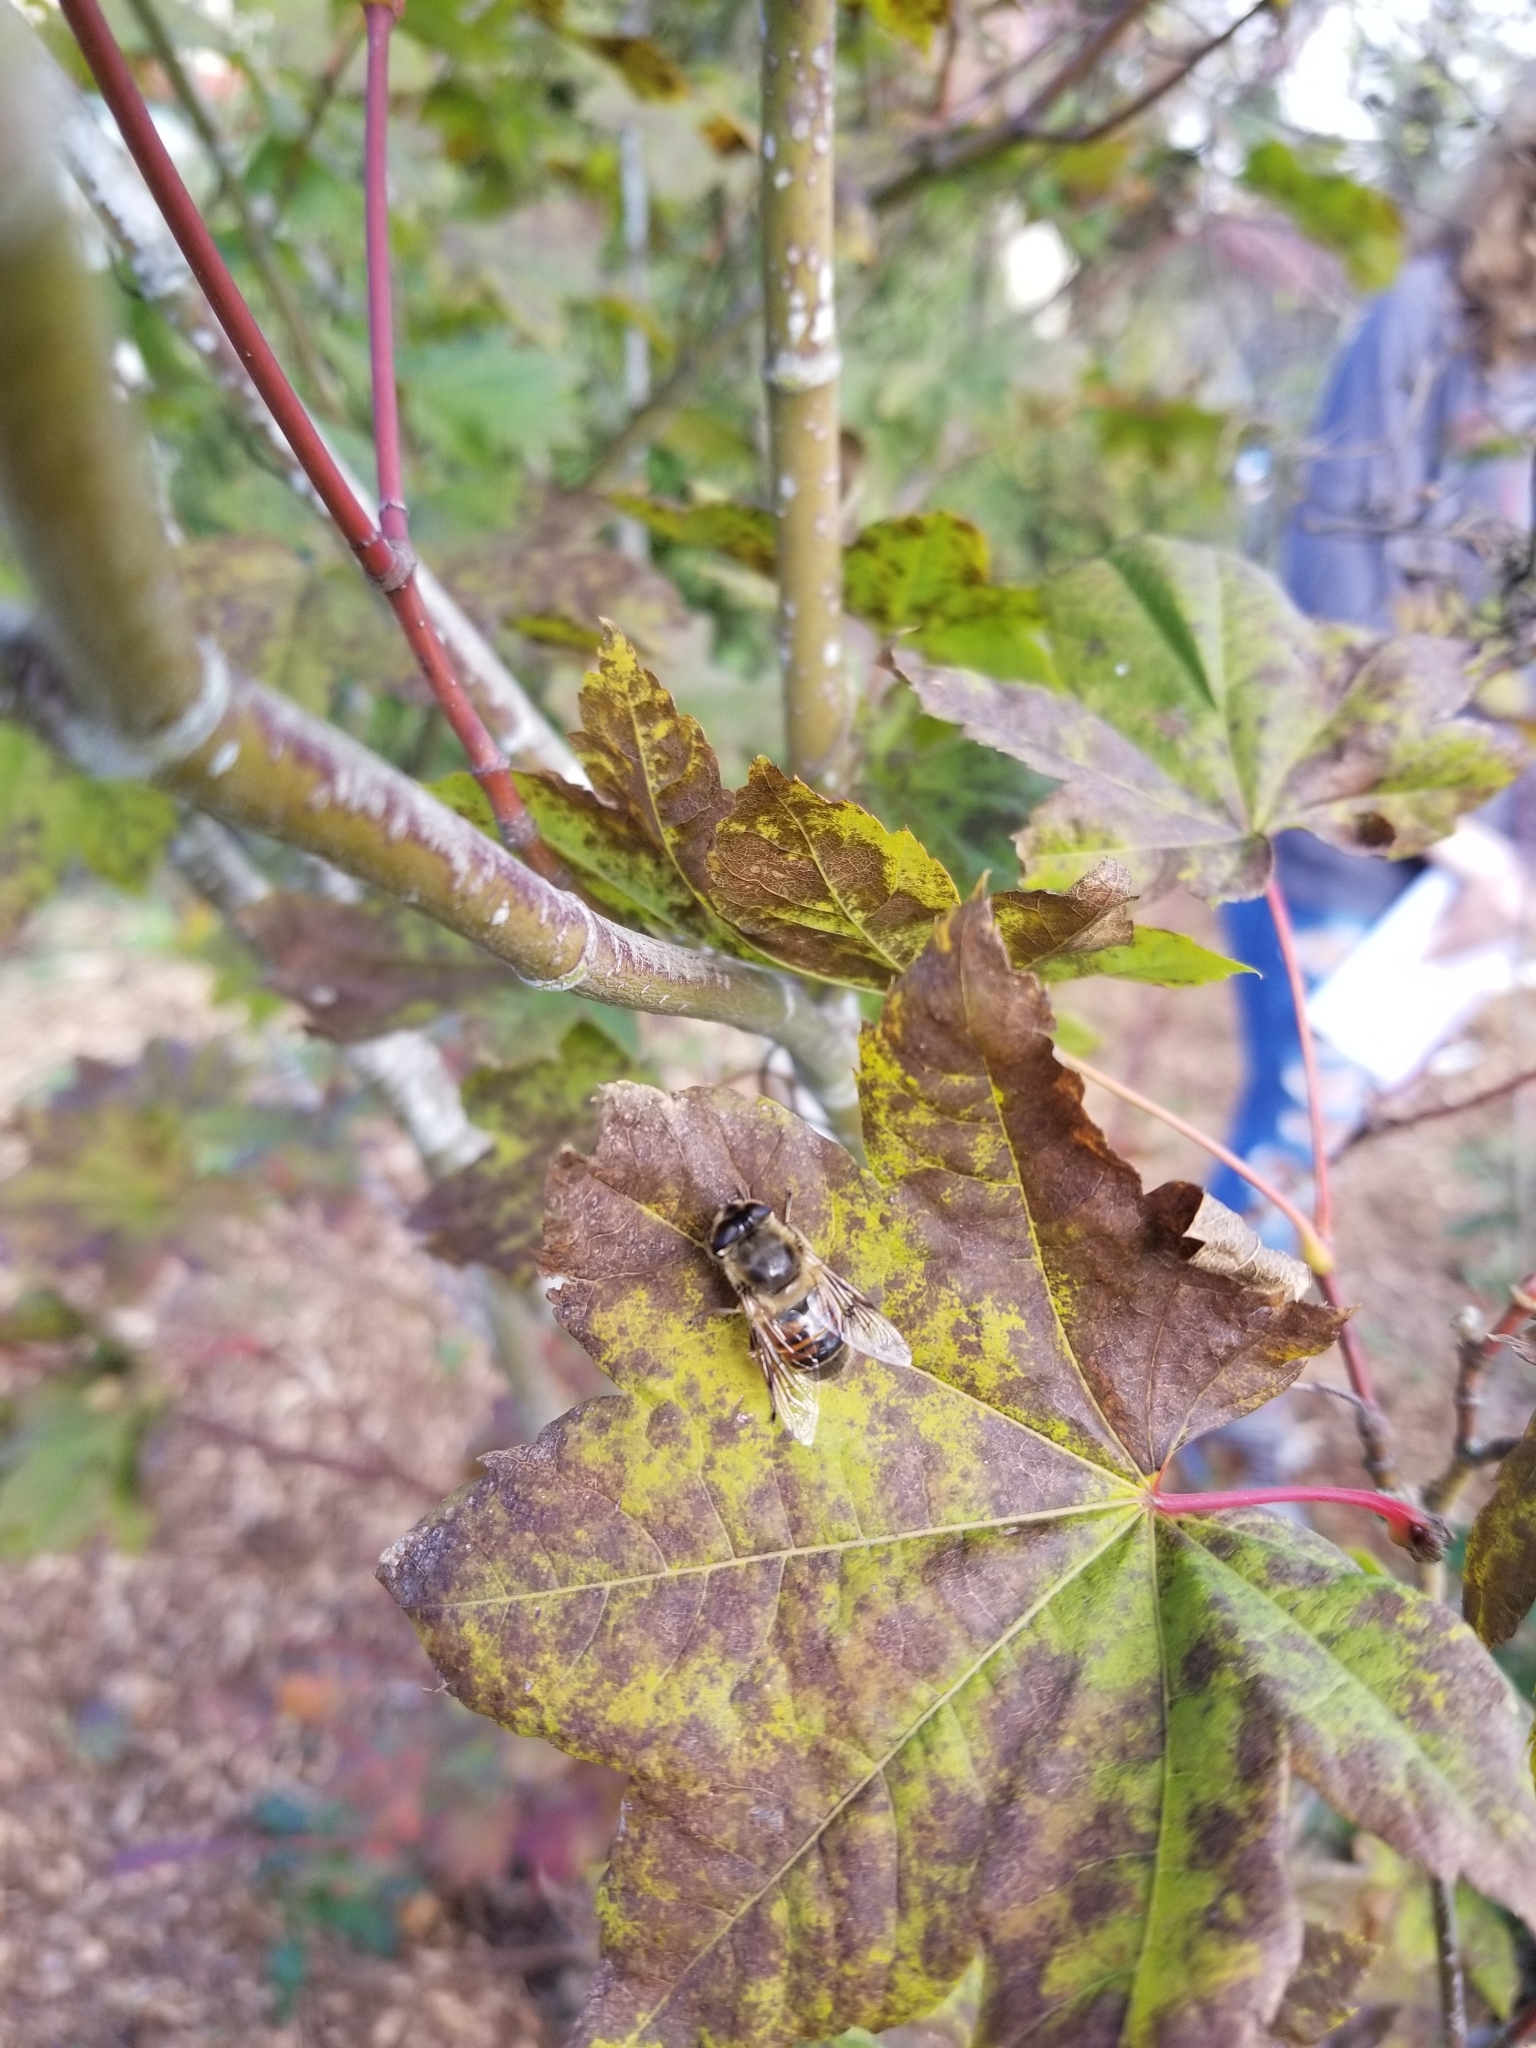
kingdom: Animalia
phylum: Arthropoda
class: Insecta
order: Diptera
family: Syrphidae
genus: Eristalis
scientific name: Eristalis tenax
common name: Drone fly
